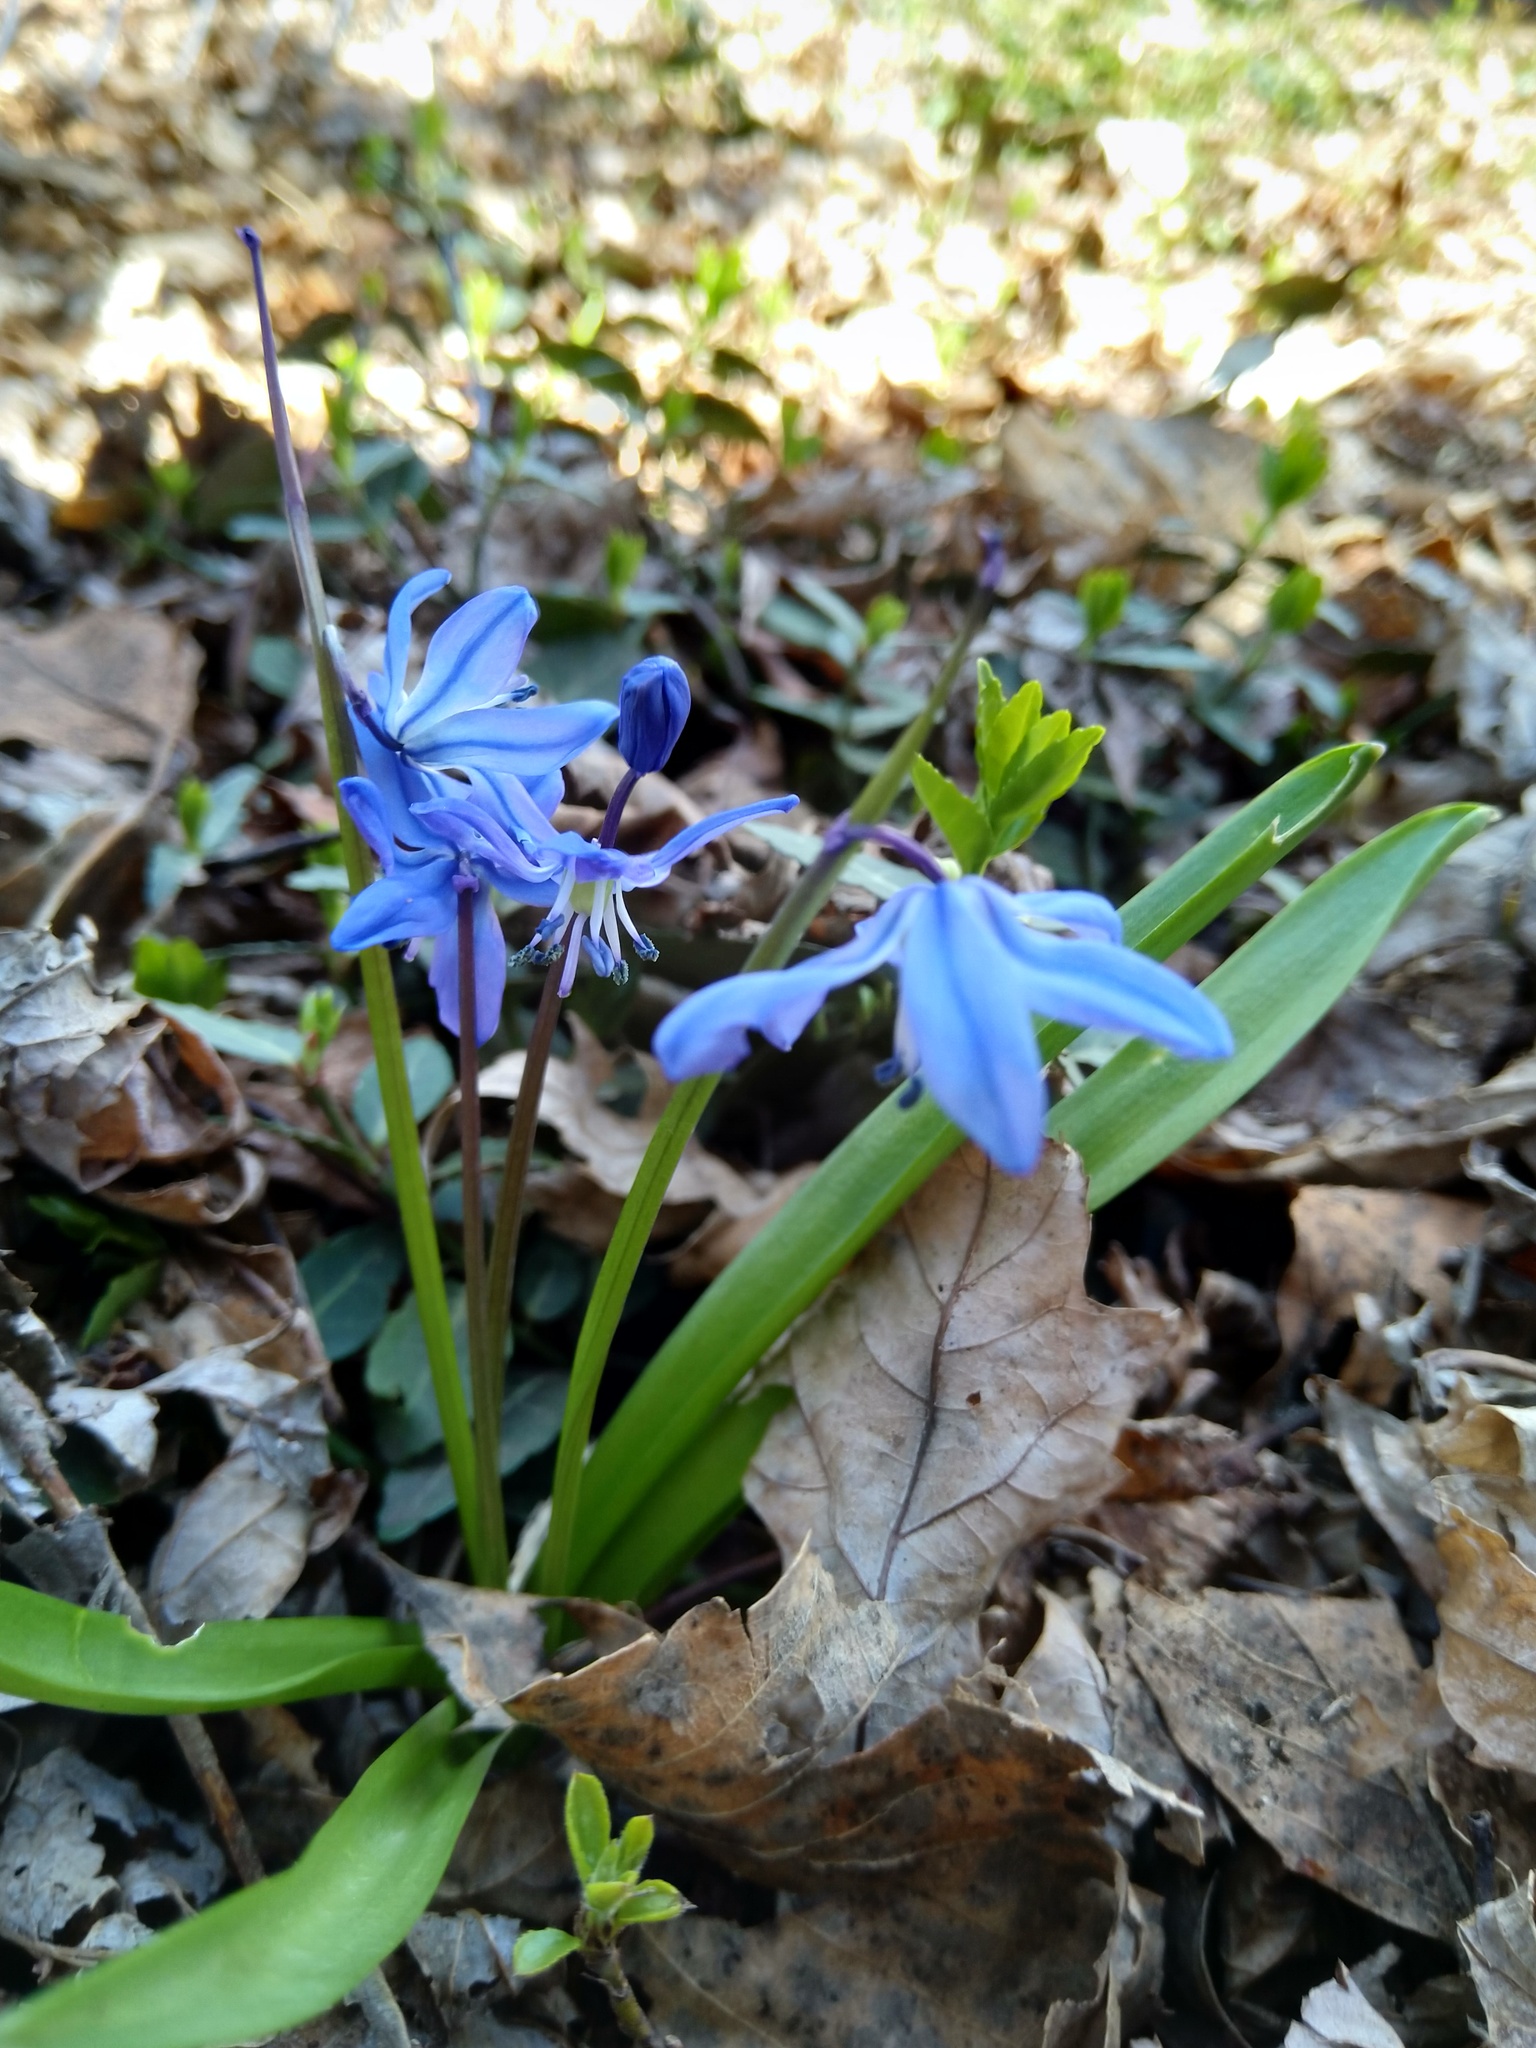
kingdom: Plantae
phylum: Tracheophyta
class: Liliopsida
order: Asparagales
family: Asparagaceae
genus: Scilla
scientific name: Scilla siberica
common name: Siberian squill
